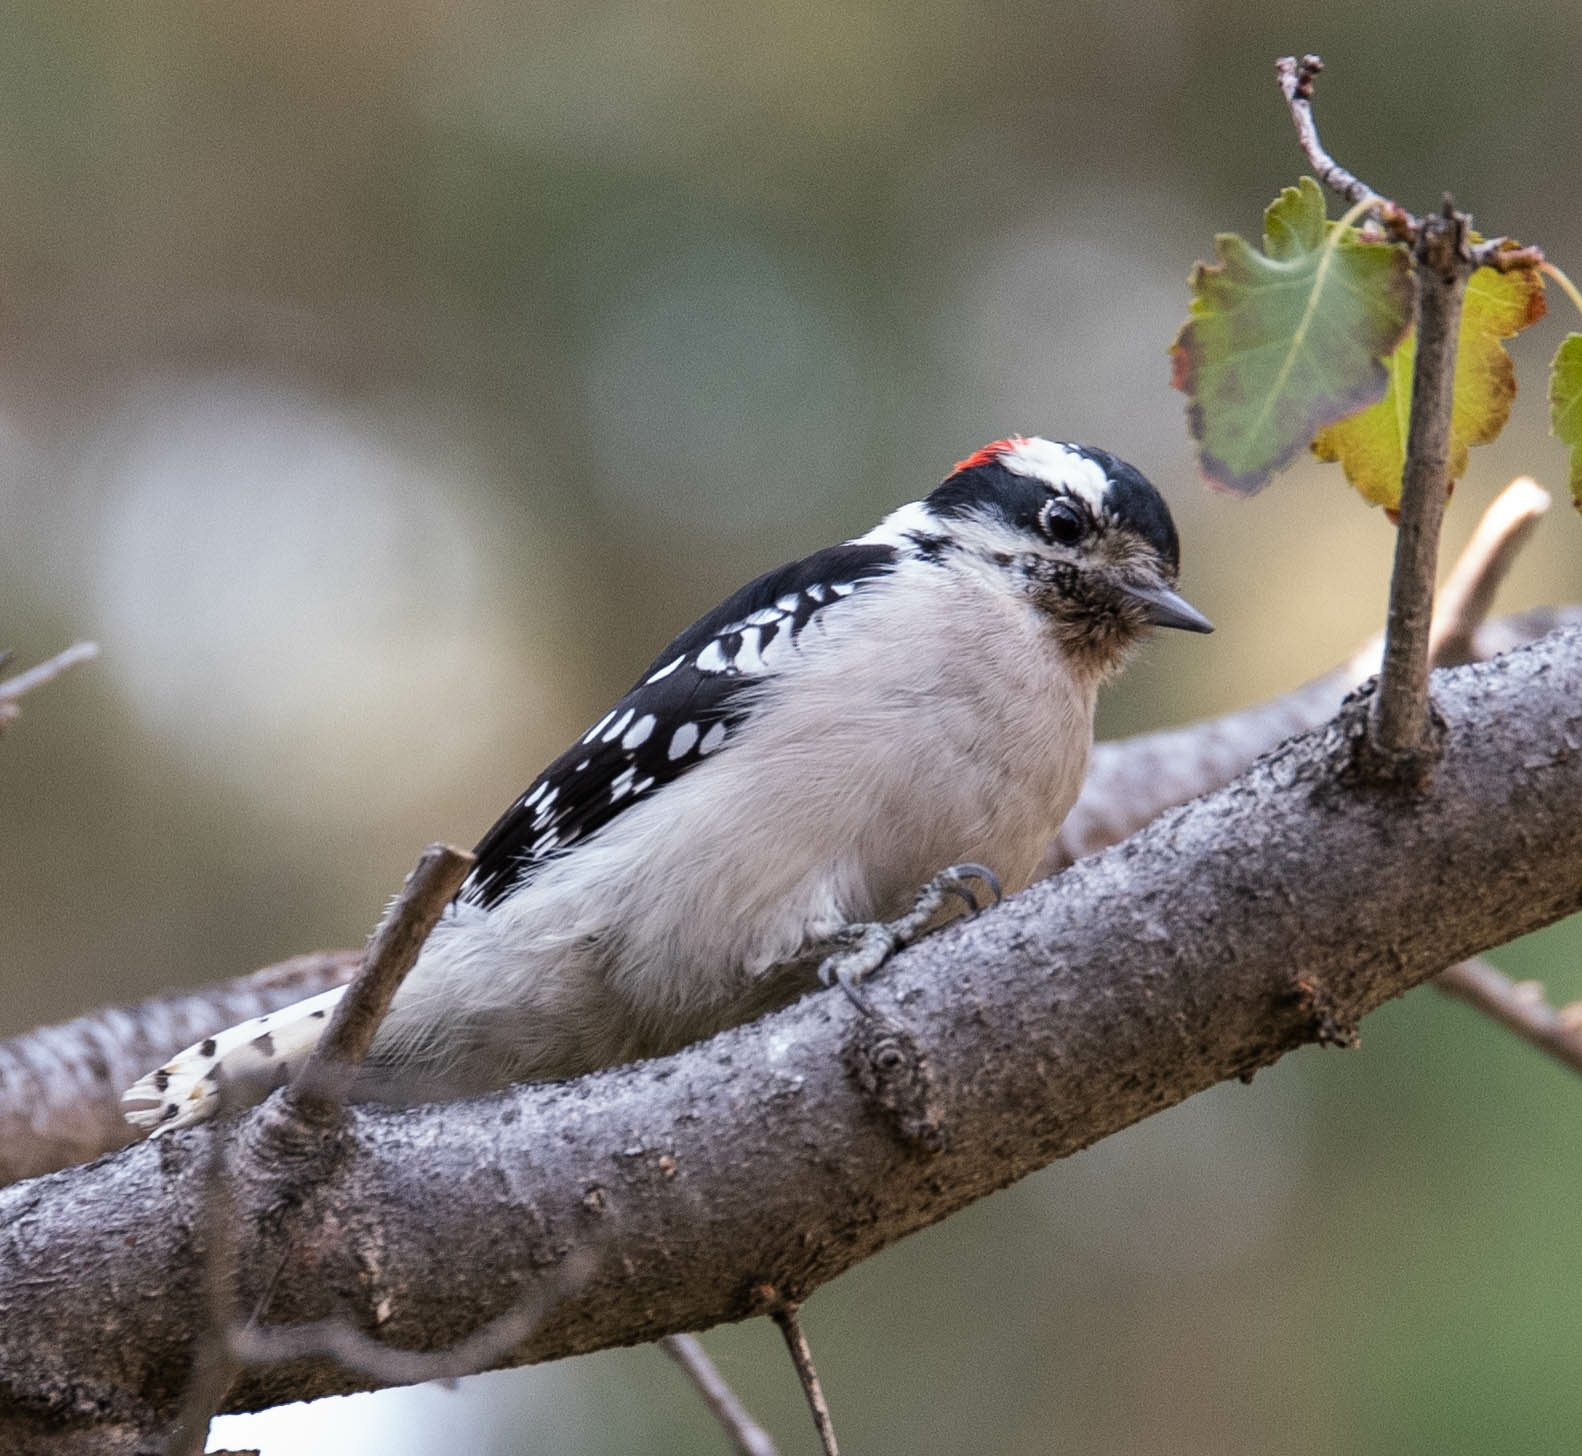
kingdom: Animalia
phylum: Chordata
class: Aves
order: Piciformes
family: Picidae
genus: Dryobates
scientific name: Dryobates pubescens
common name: Downy woodpecker
